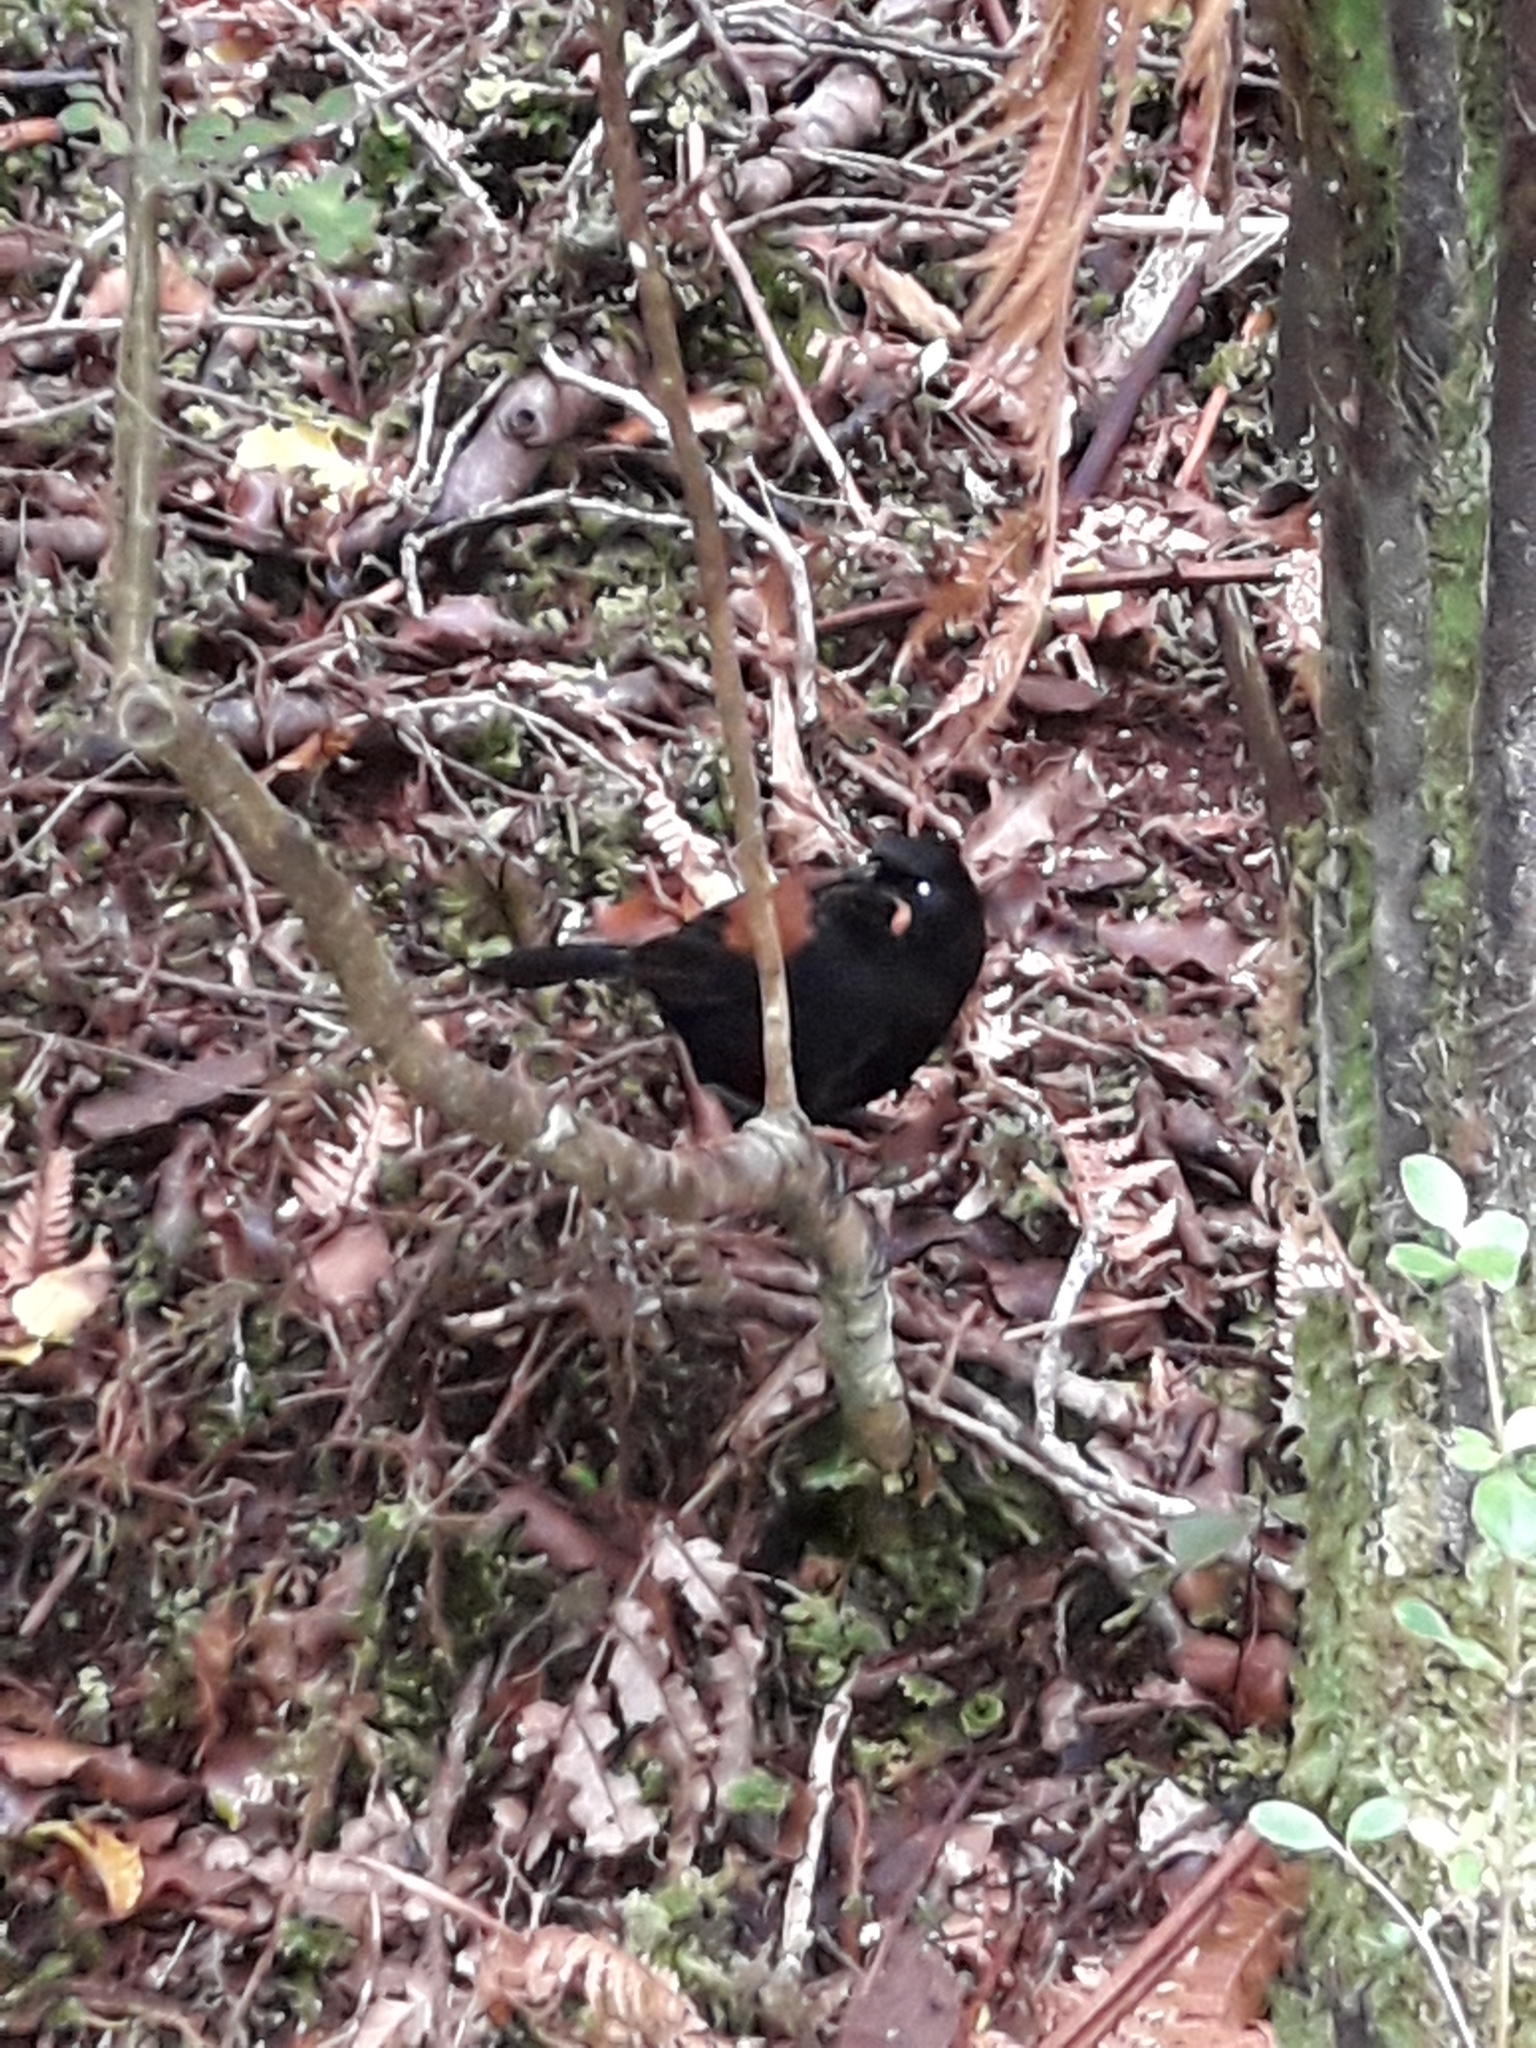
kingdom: Animalia
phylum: Chordata
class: Aves
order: Passeriformes
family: Callaeatidae
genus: Philesturnus
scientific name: Philesturnus carunculatus
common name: South island saddleback
